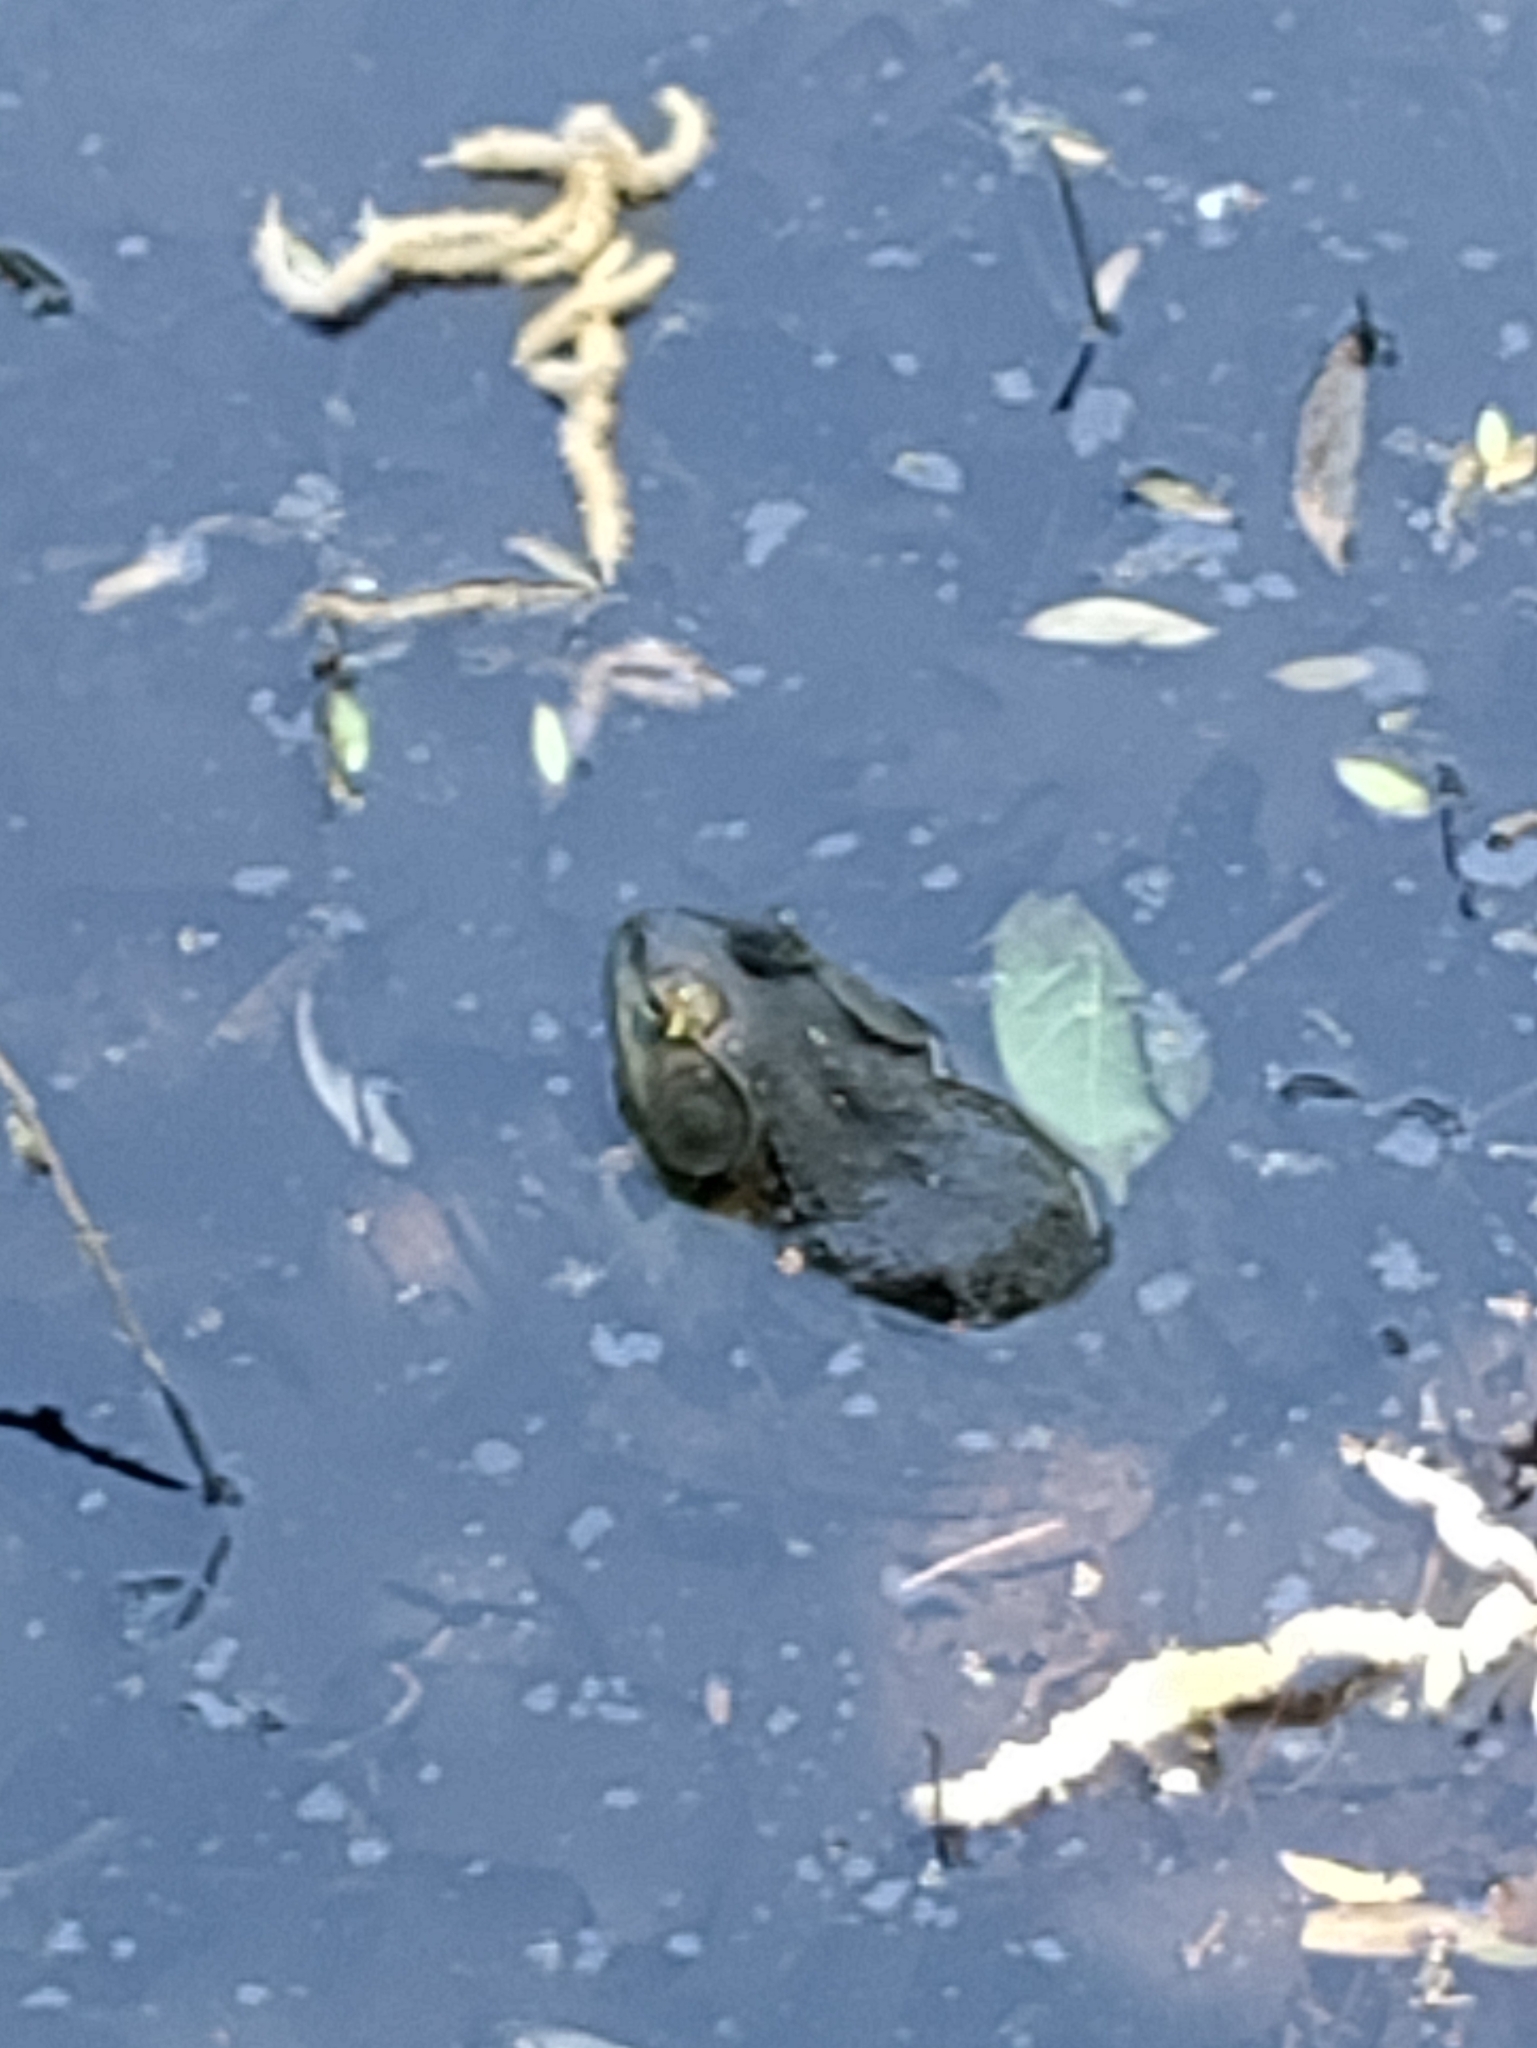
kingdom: Animalia
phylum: Chordata
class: Amphibia
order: Anura
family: Ranidae
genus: Lithobates
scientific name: Lithobates catesbeianus
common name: American bullfrog
